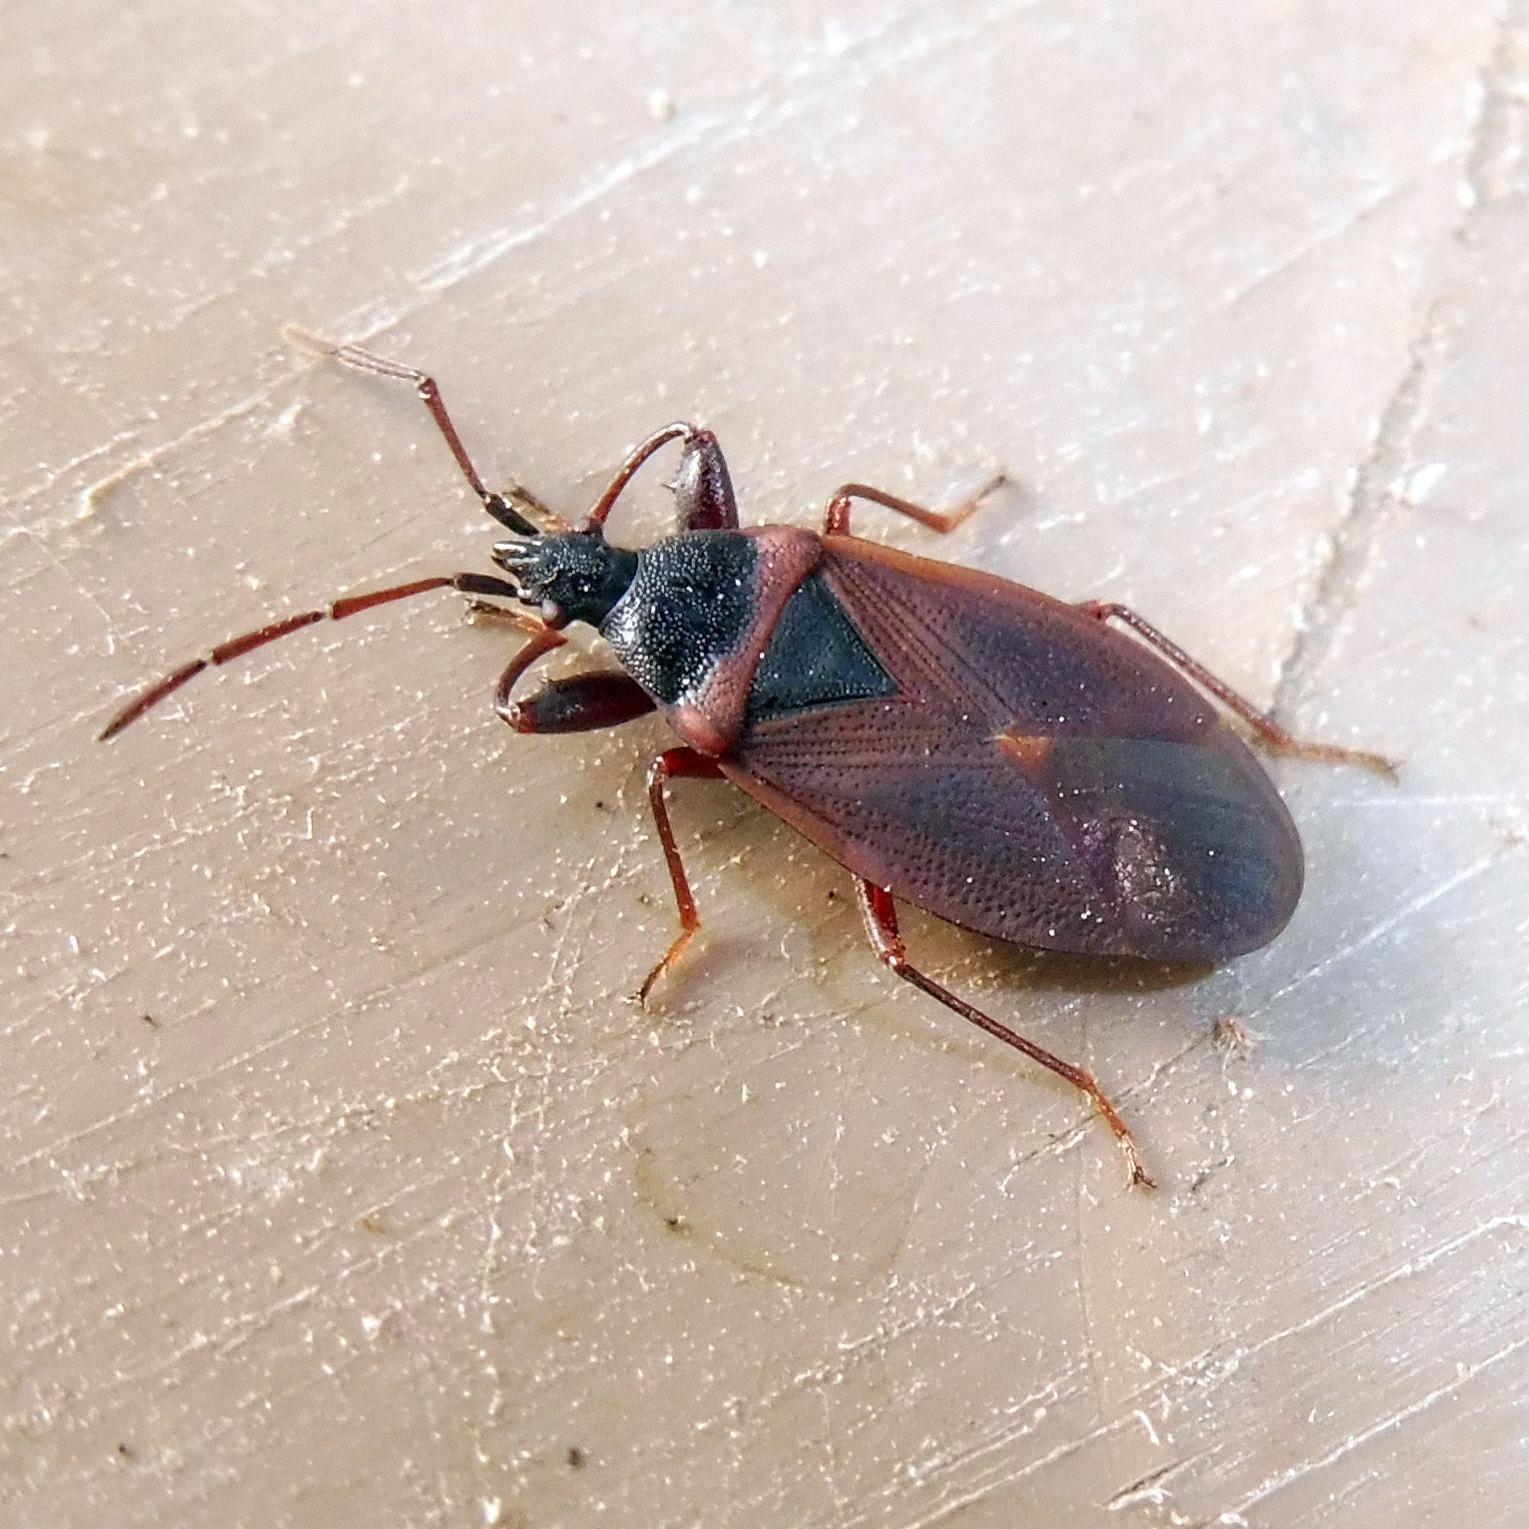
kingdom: Animalia
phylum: Arthropoda
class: Insecta
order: Hemiptera
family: Rhyparochromidae
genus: Gastrodes
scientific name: Gastrodes grossipes
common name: Pine cone bug
